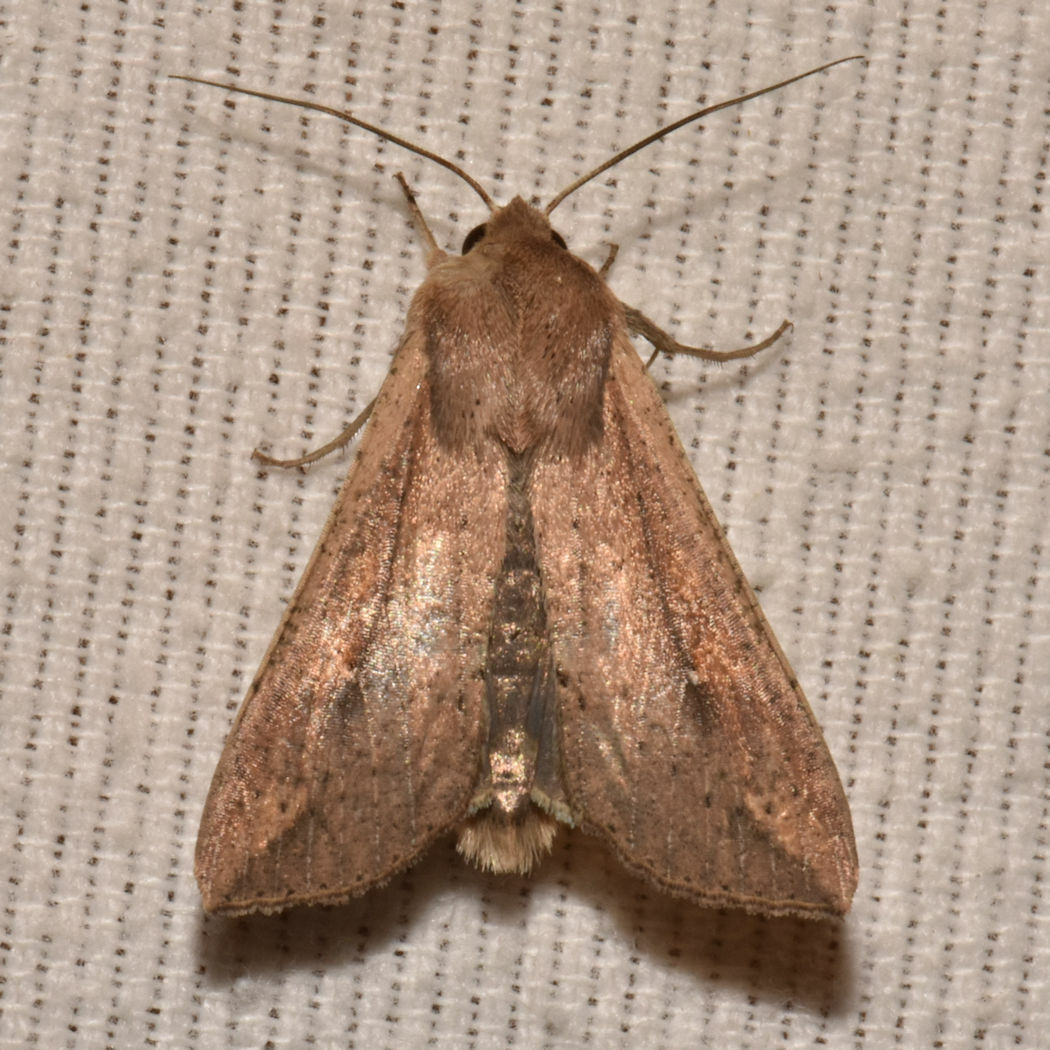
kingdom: Animalia
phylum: Arthropoda
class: Insecta
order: Lepidoptera
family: Noctuidae
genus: Mythimna
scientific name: Mythimna unipuncta
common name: White-speck
